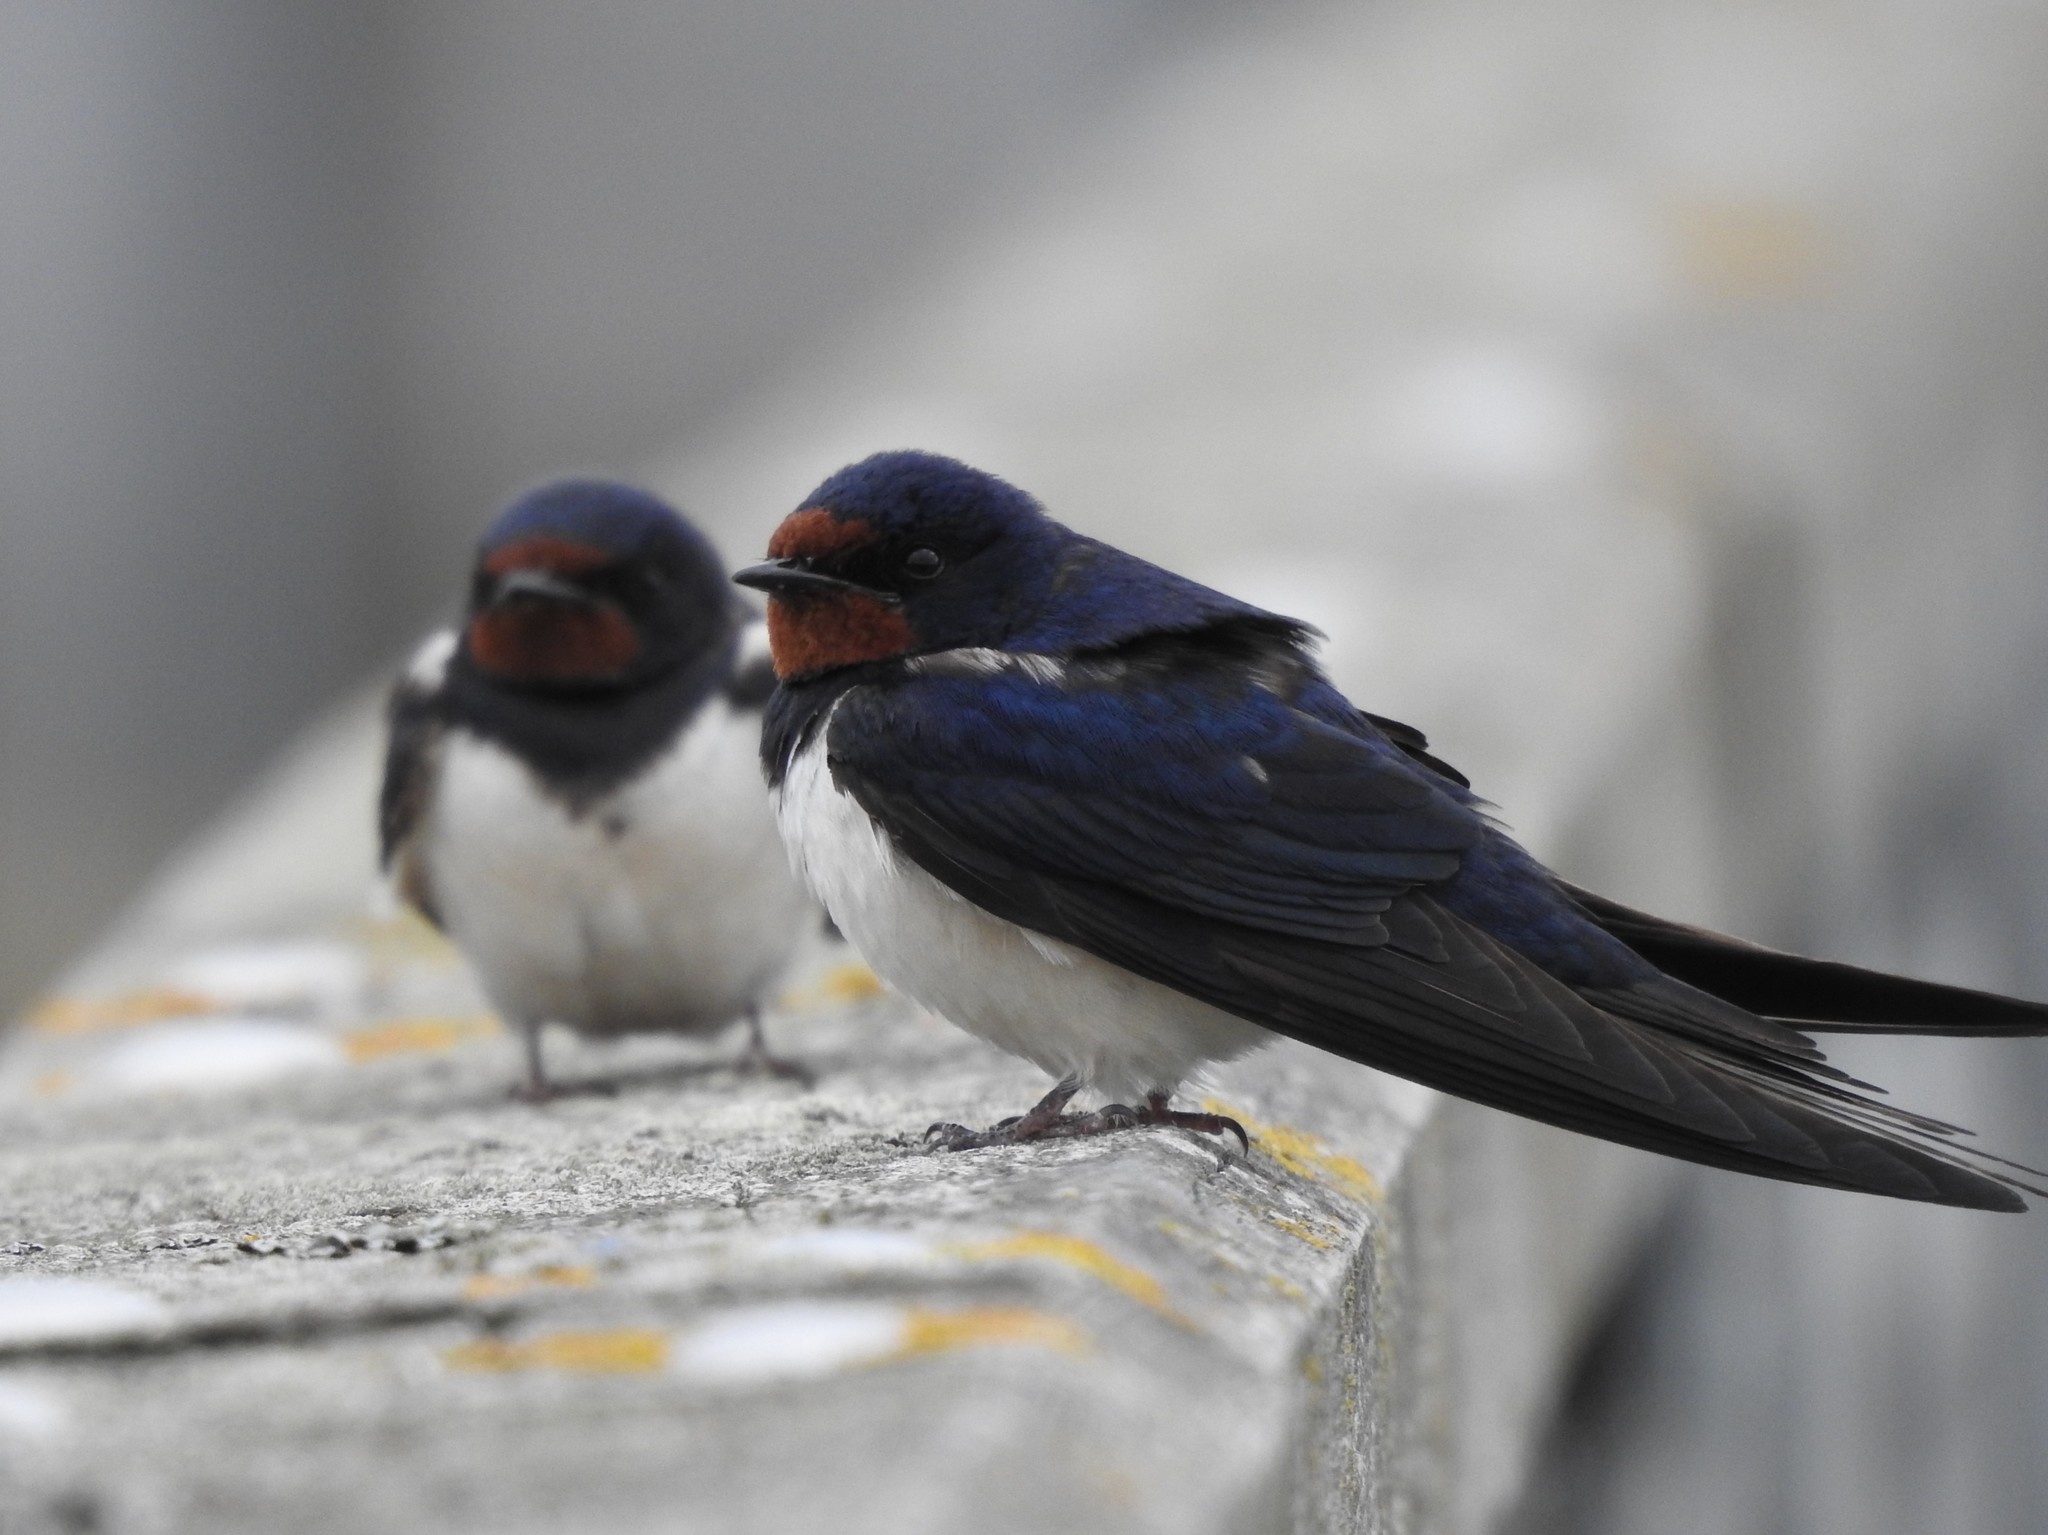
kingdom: Animalia
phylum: Chordata
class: Aves
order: Passeriformes
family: Hirundinidae
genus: Hirundo
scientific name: Hirundo rustica
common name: Barn swallow
